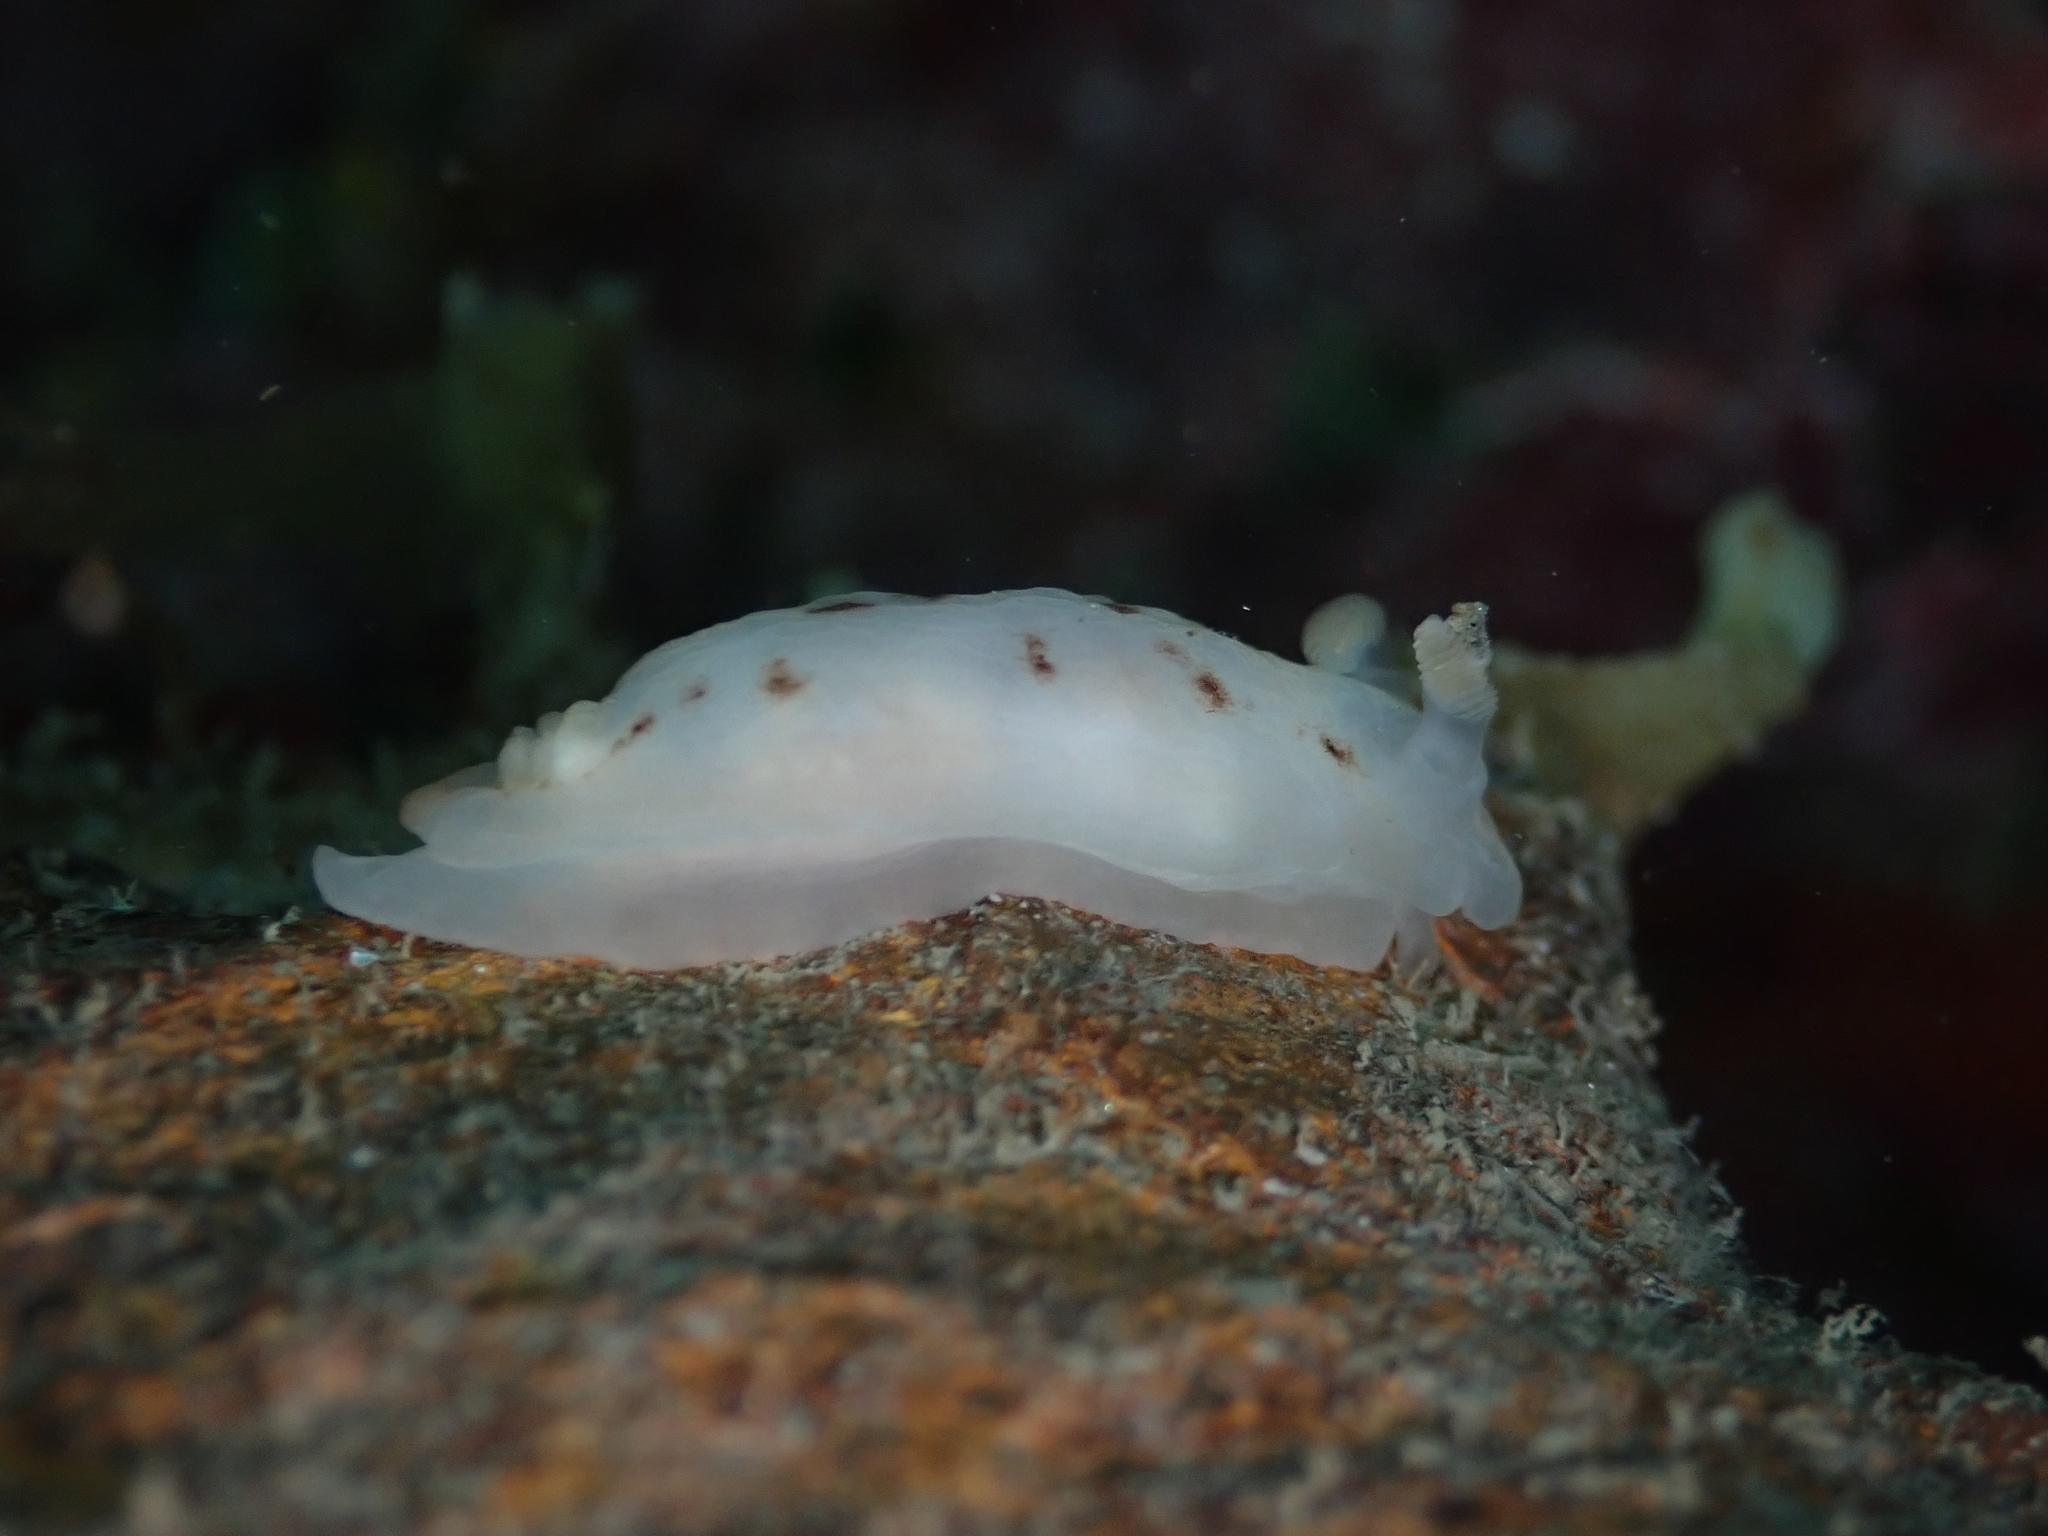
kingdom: Animalia
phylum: Mollusca
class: Gastropoda
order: Nudibranchia
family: Dorididae
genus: Aphelodoris
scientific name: Aphelodoris luctuosa
